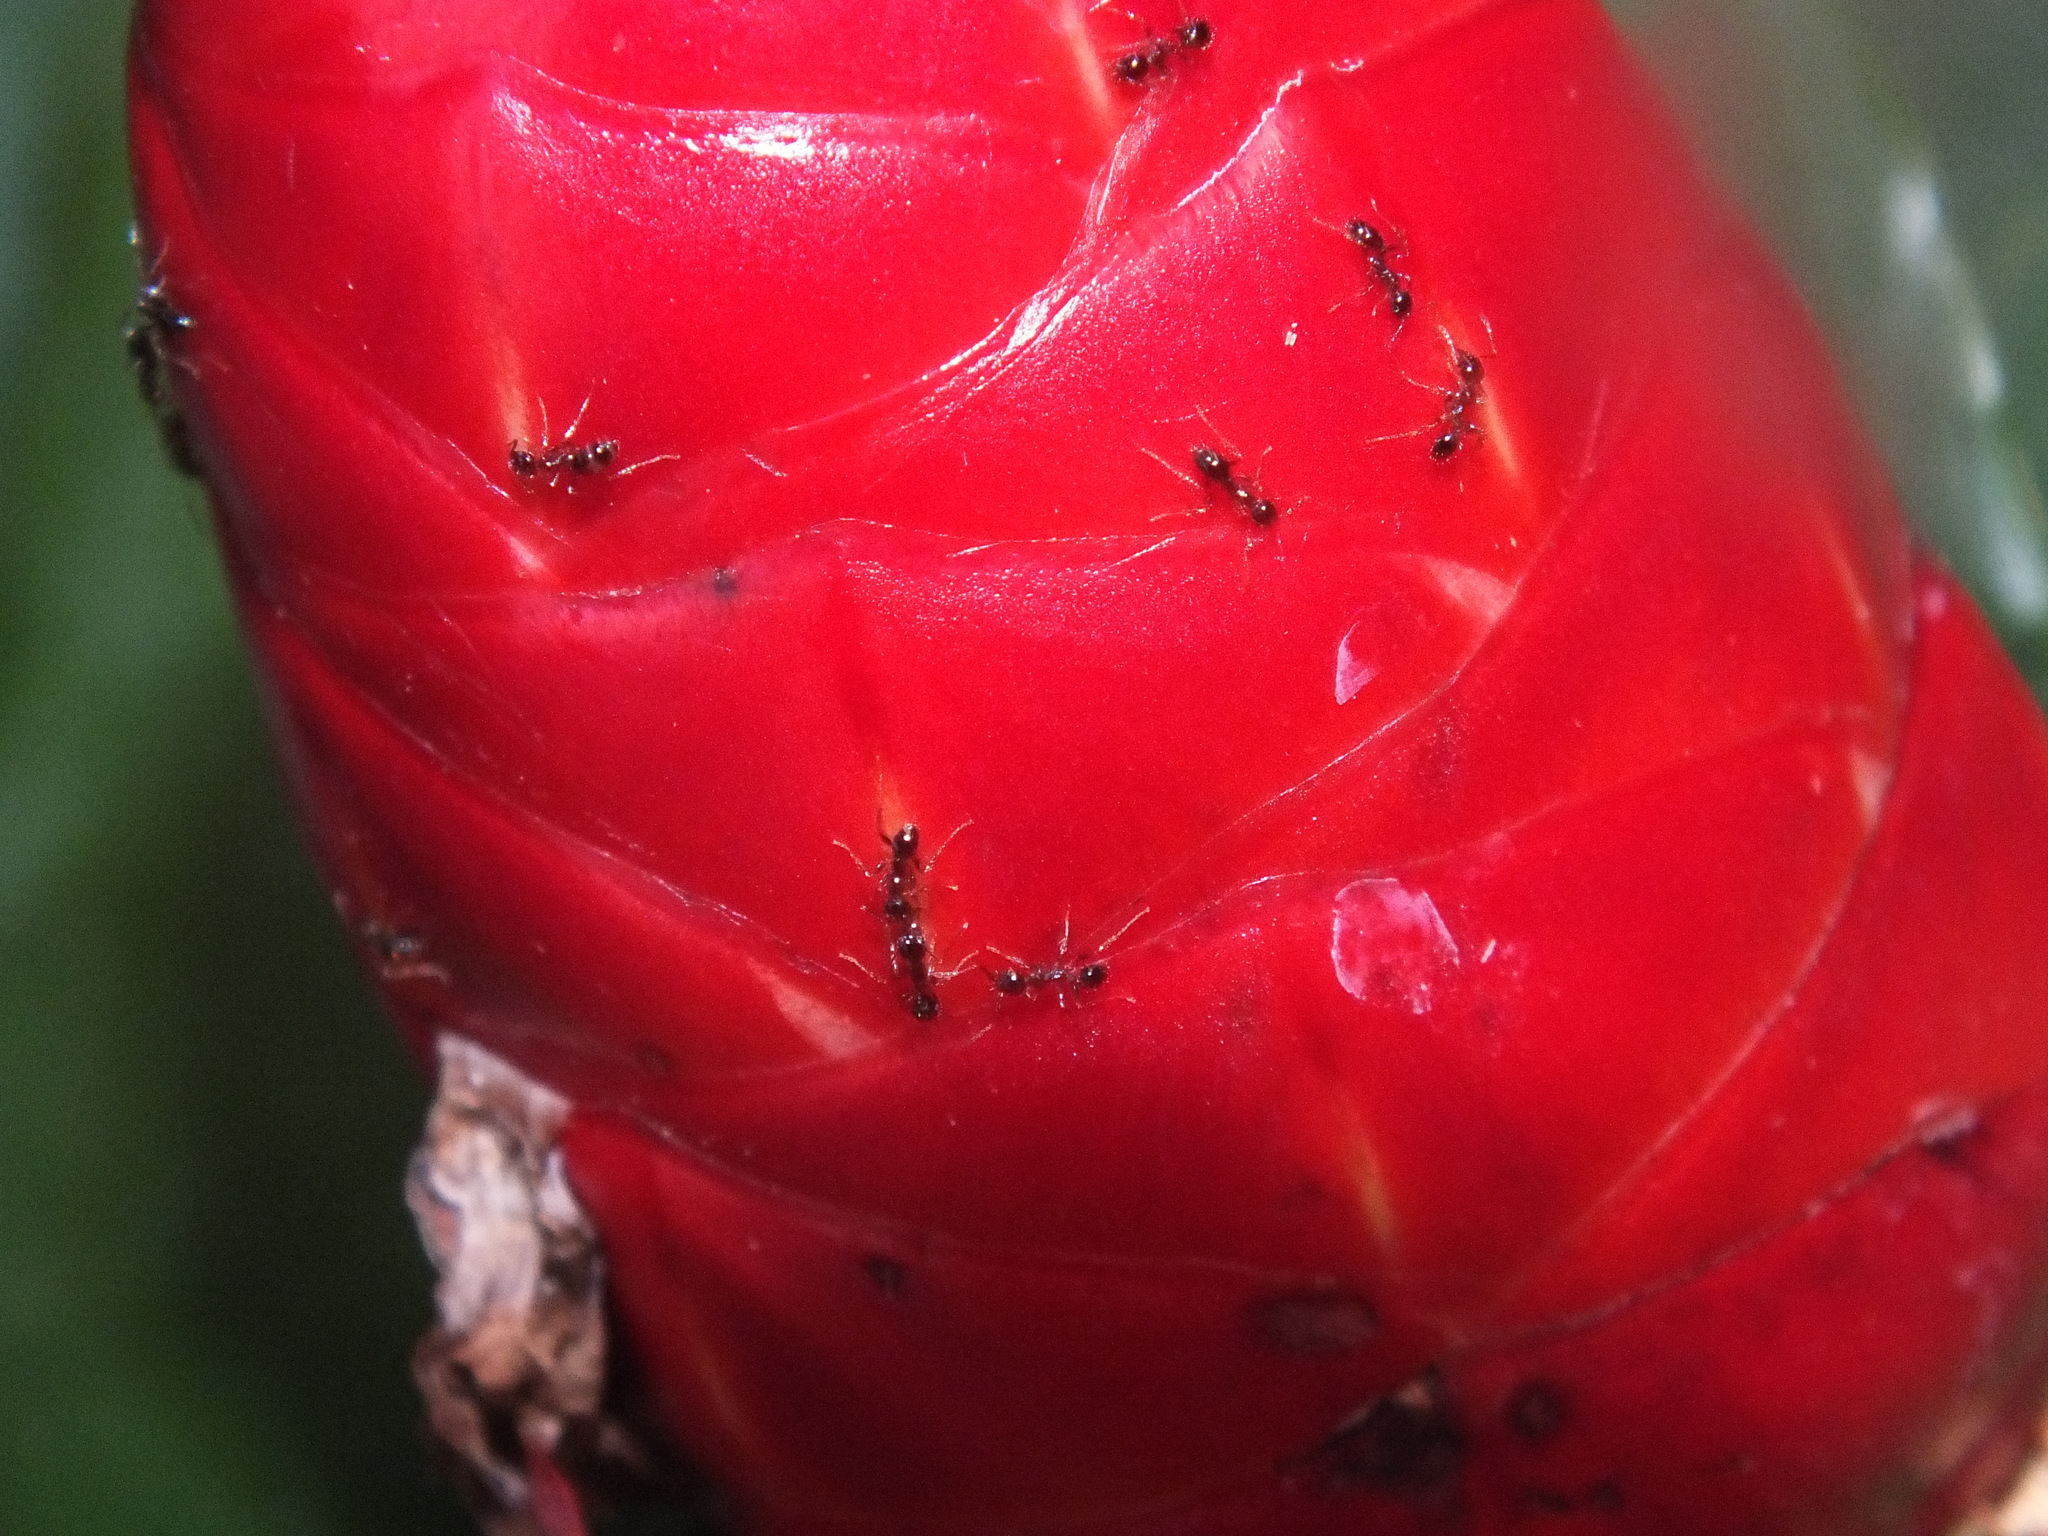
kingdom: Animalia
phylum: Arthropoda
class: Insecta
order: Hymenoptera
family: Formicidae
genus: Pheidole
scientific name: Pheidole megacephala
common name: Bigheaded ant
